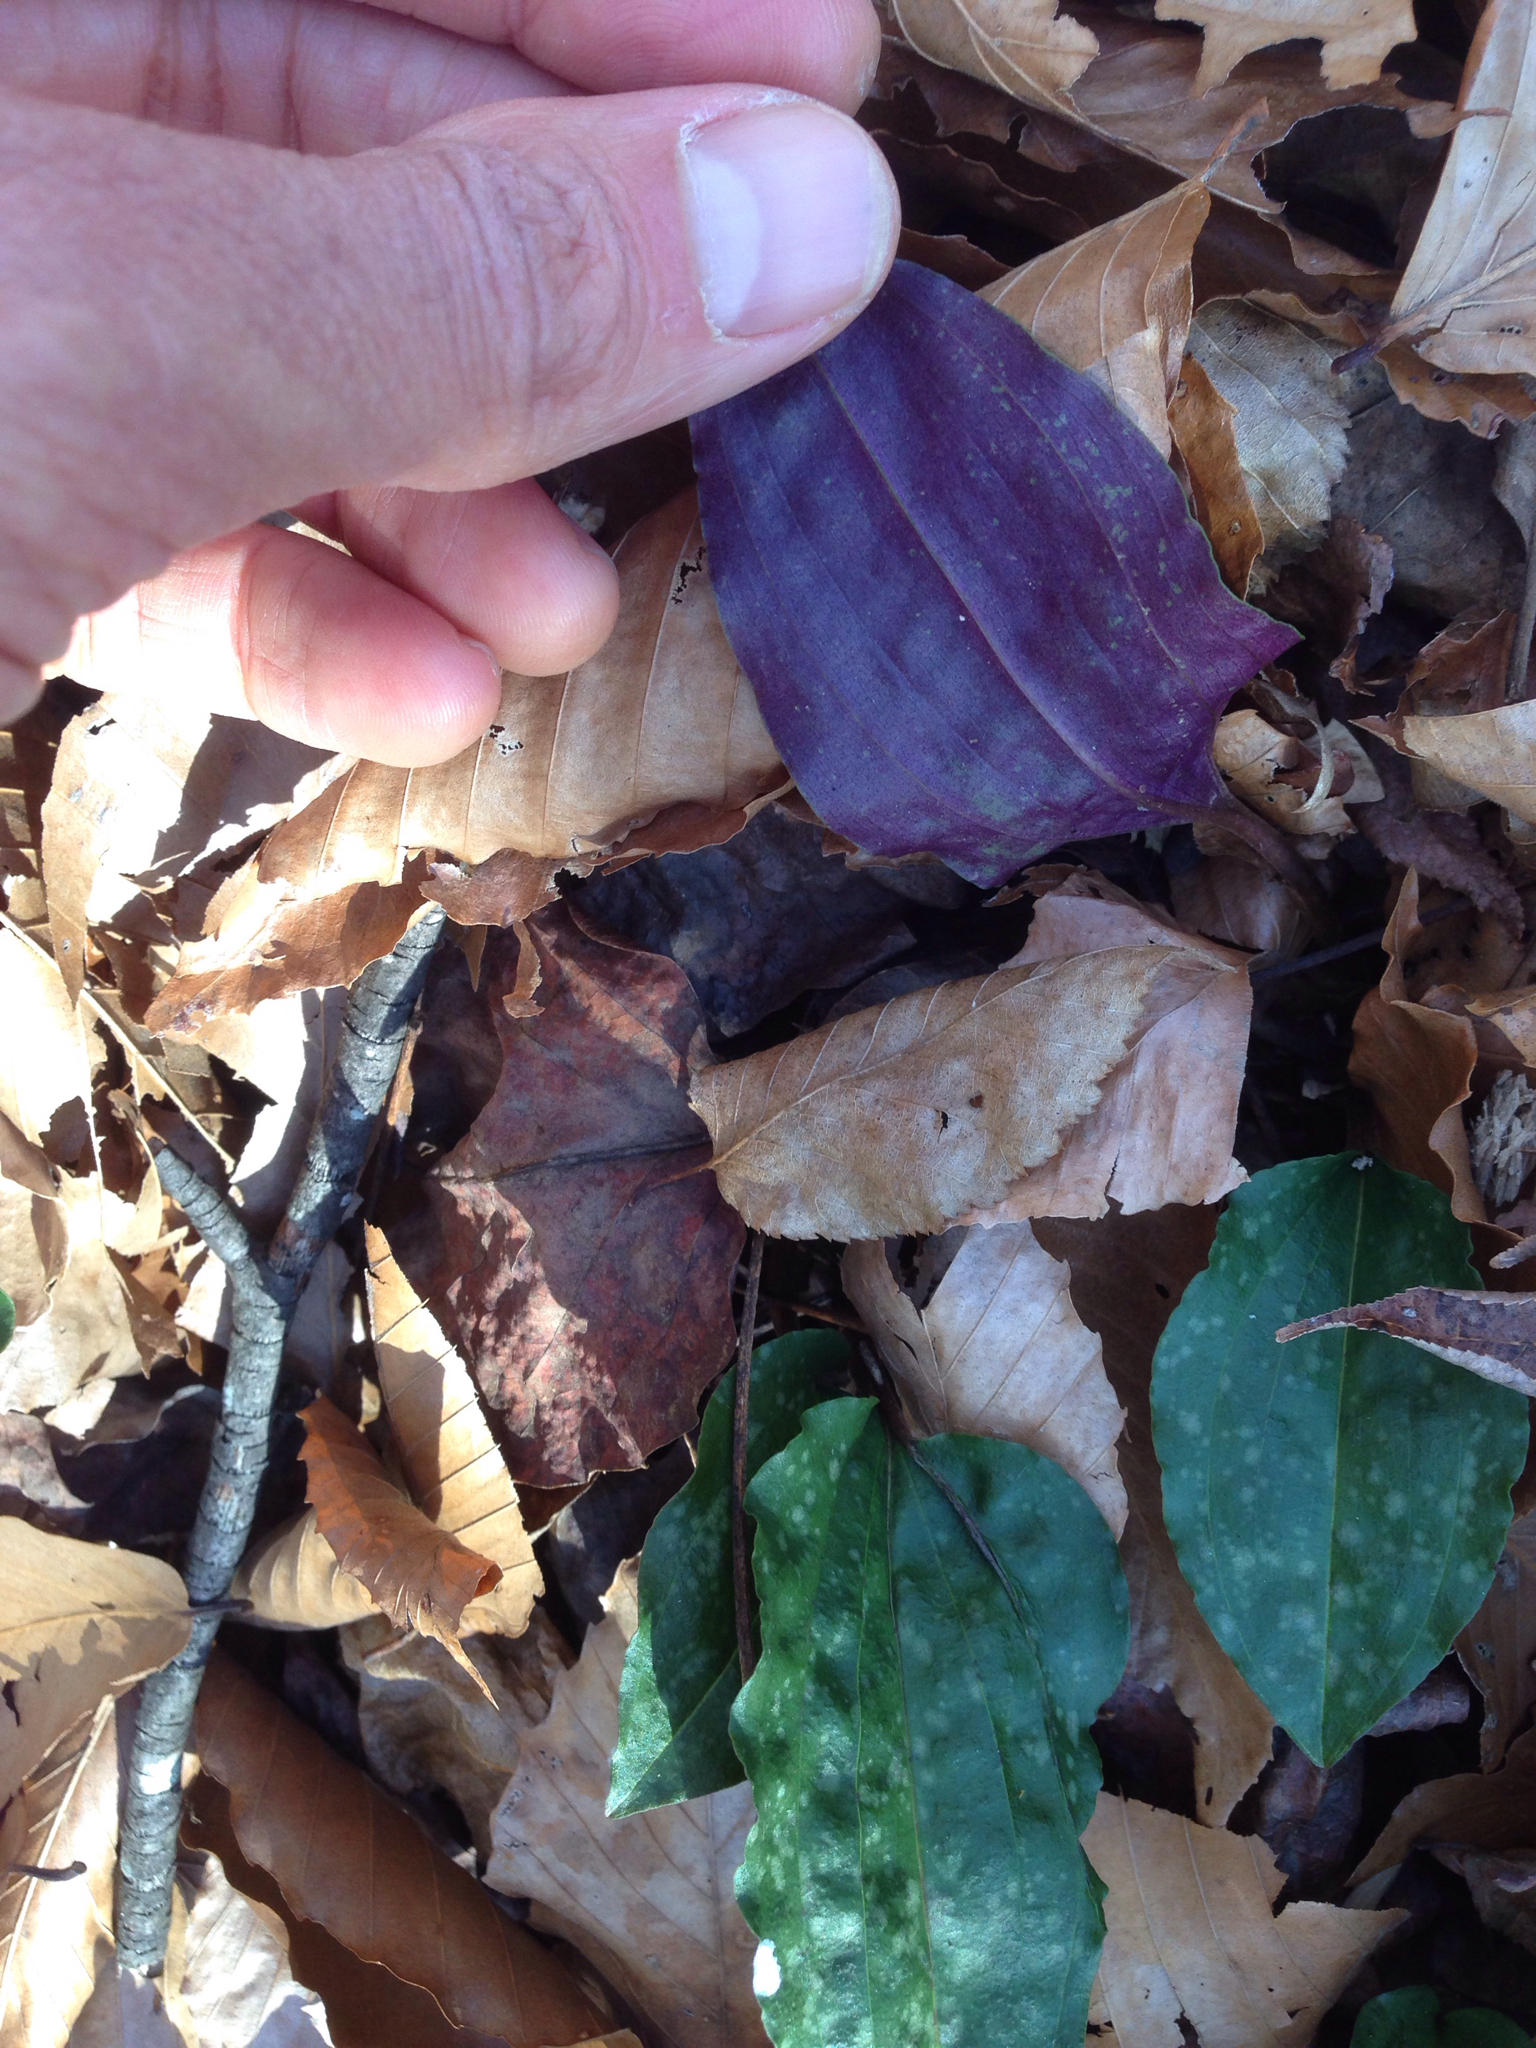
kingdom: Plantae
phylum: Tracheophyta
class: Liliopsida
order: Asparagales
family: Orchidaceae
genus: Tipularia
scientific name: Tipularia discolor
